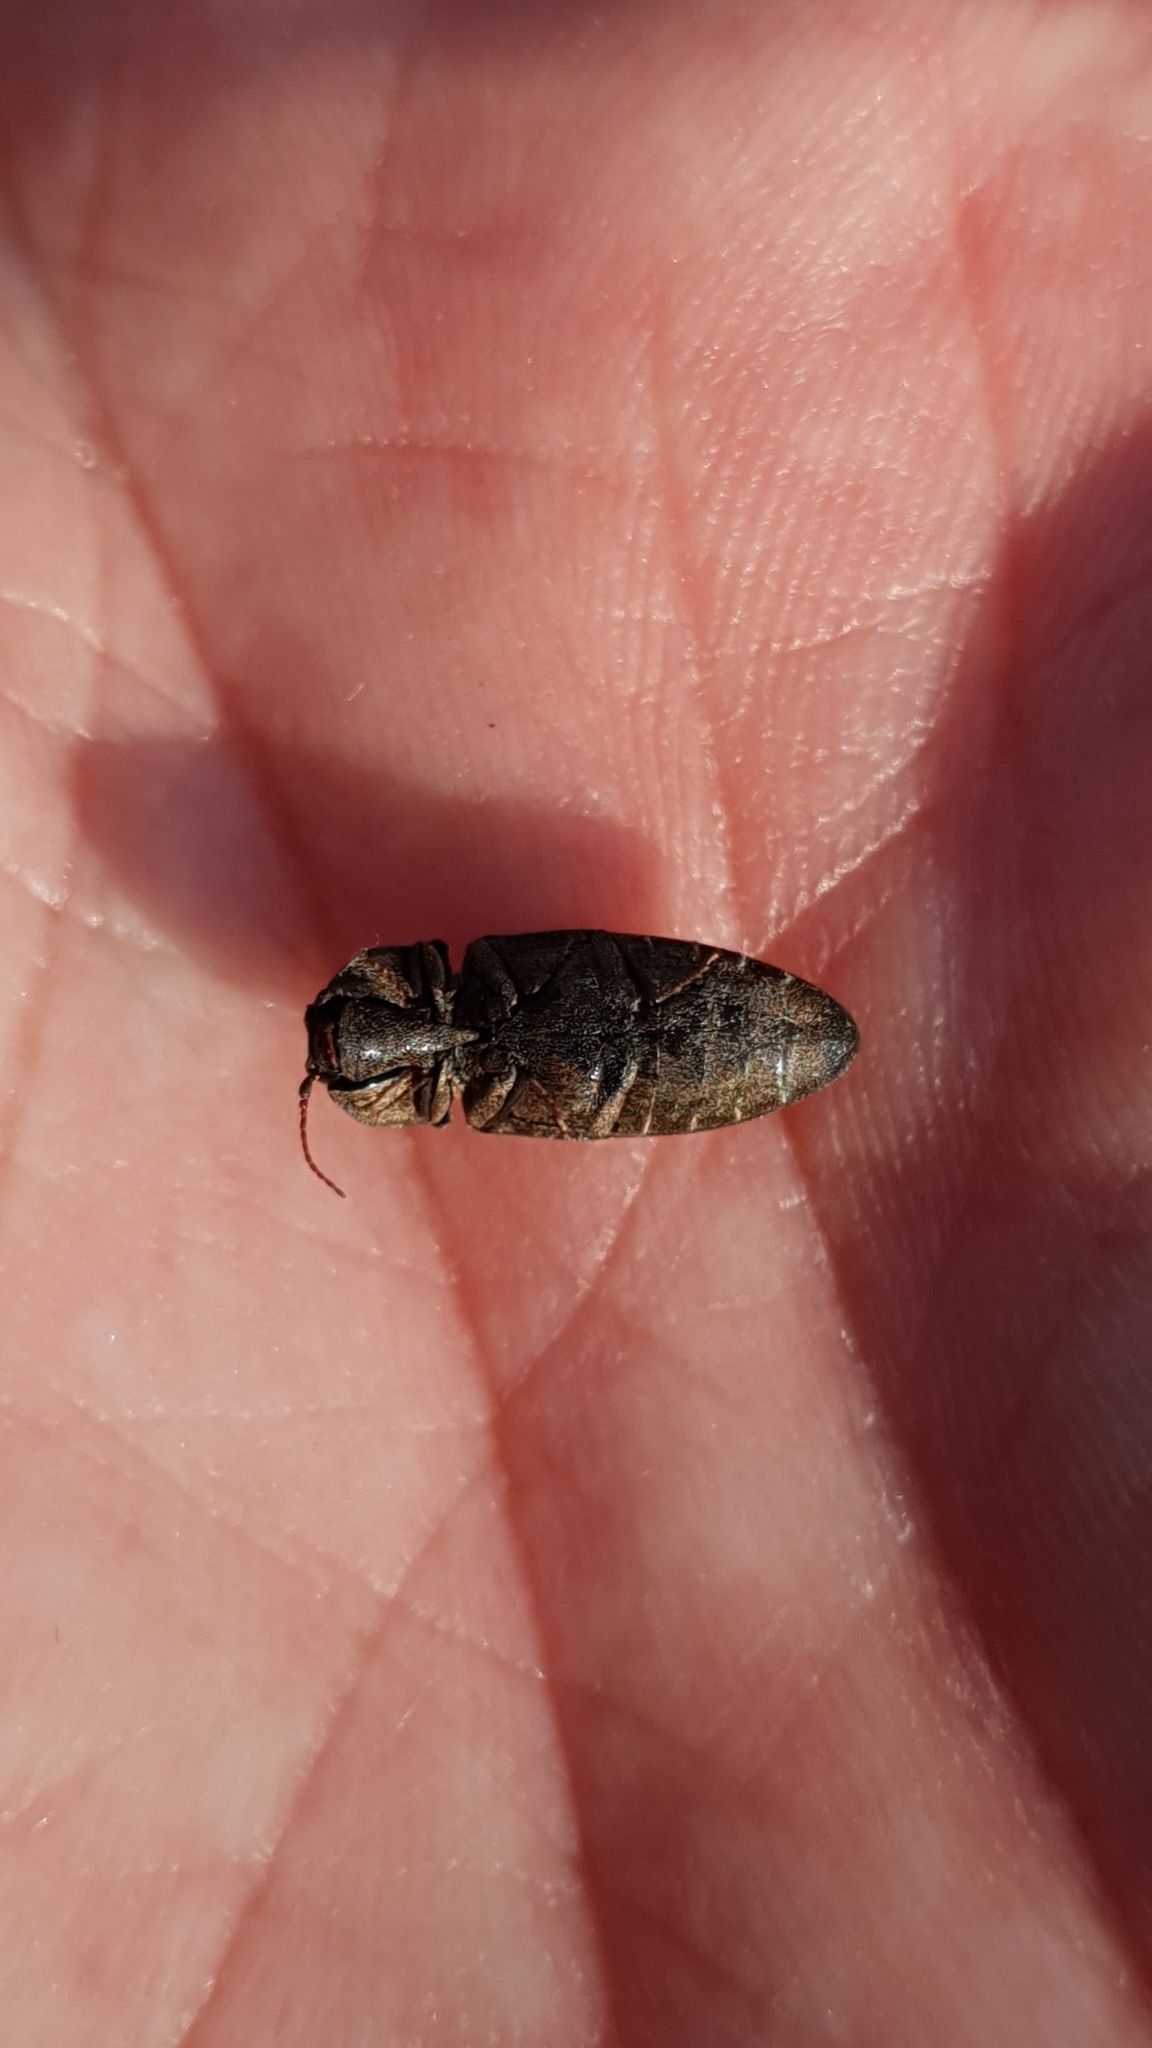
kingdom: Animalia
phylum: Arthropoda
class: Insecta
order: Coleoptera
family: Elateridae
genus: Agrypnus
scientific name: Agrypnus murinus
